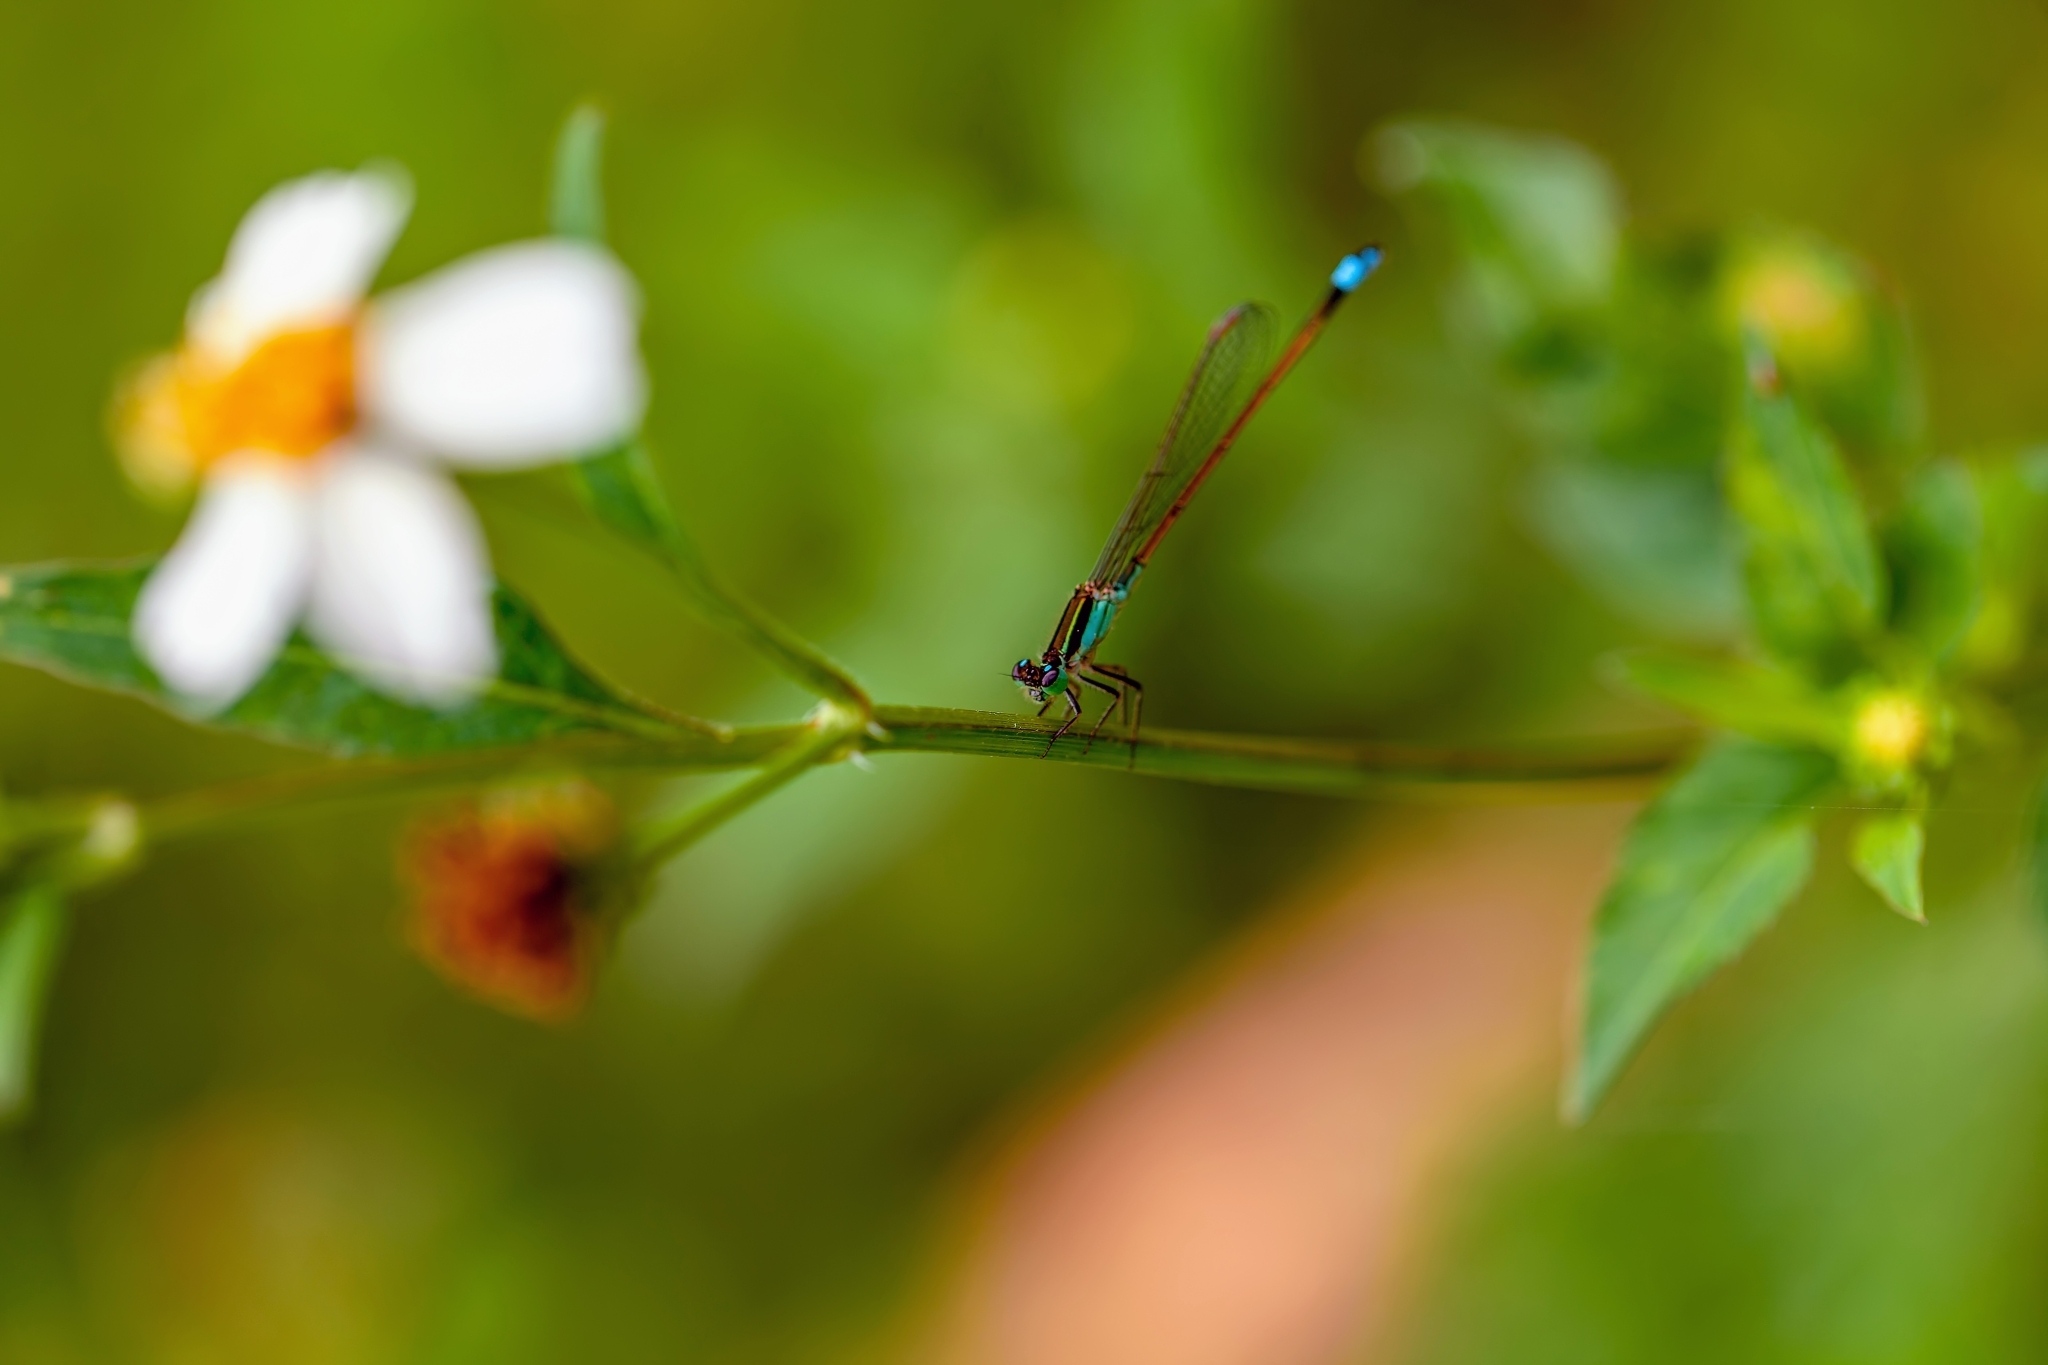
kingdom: Animalia
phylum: Arthropoda
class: Insecta
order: Odonata
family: Coenagrionidae
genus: Ischnura
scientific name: Ischnura ramburii
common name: Rambur's forktail
